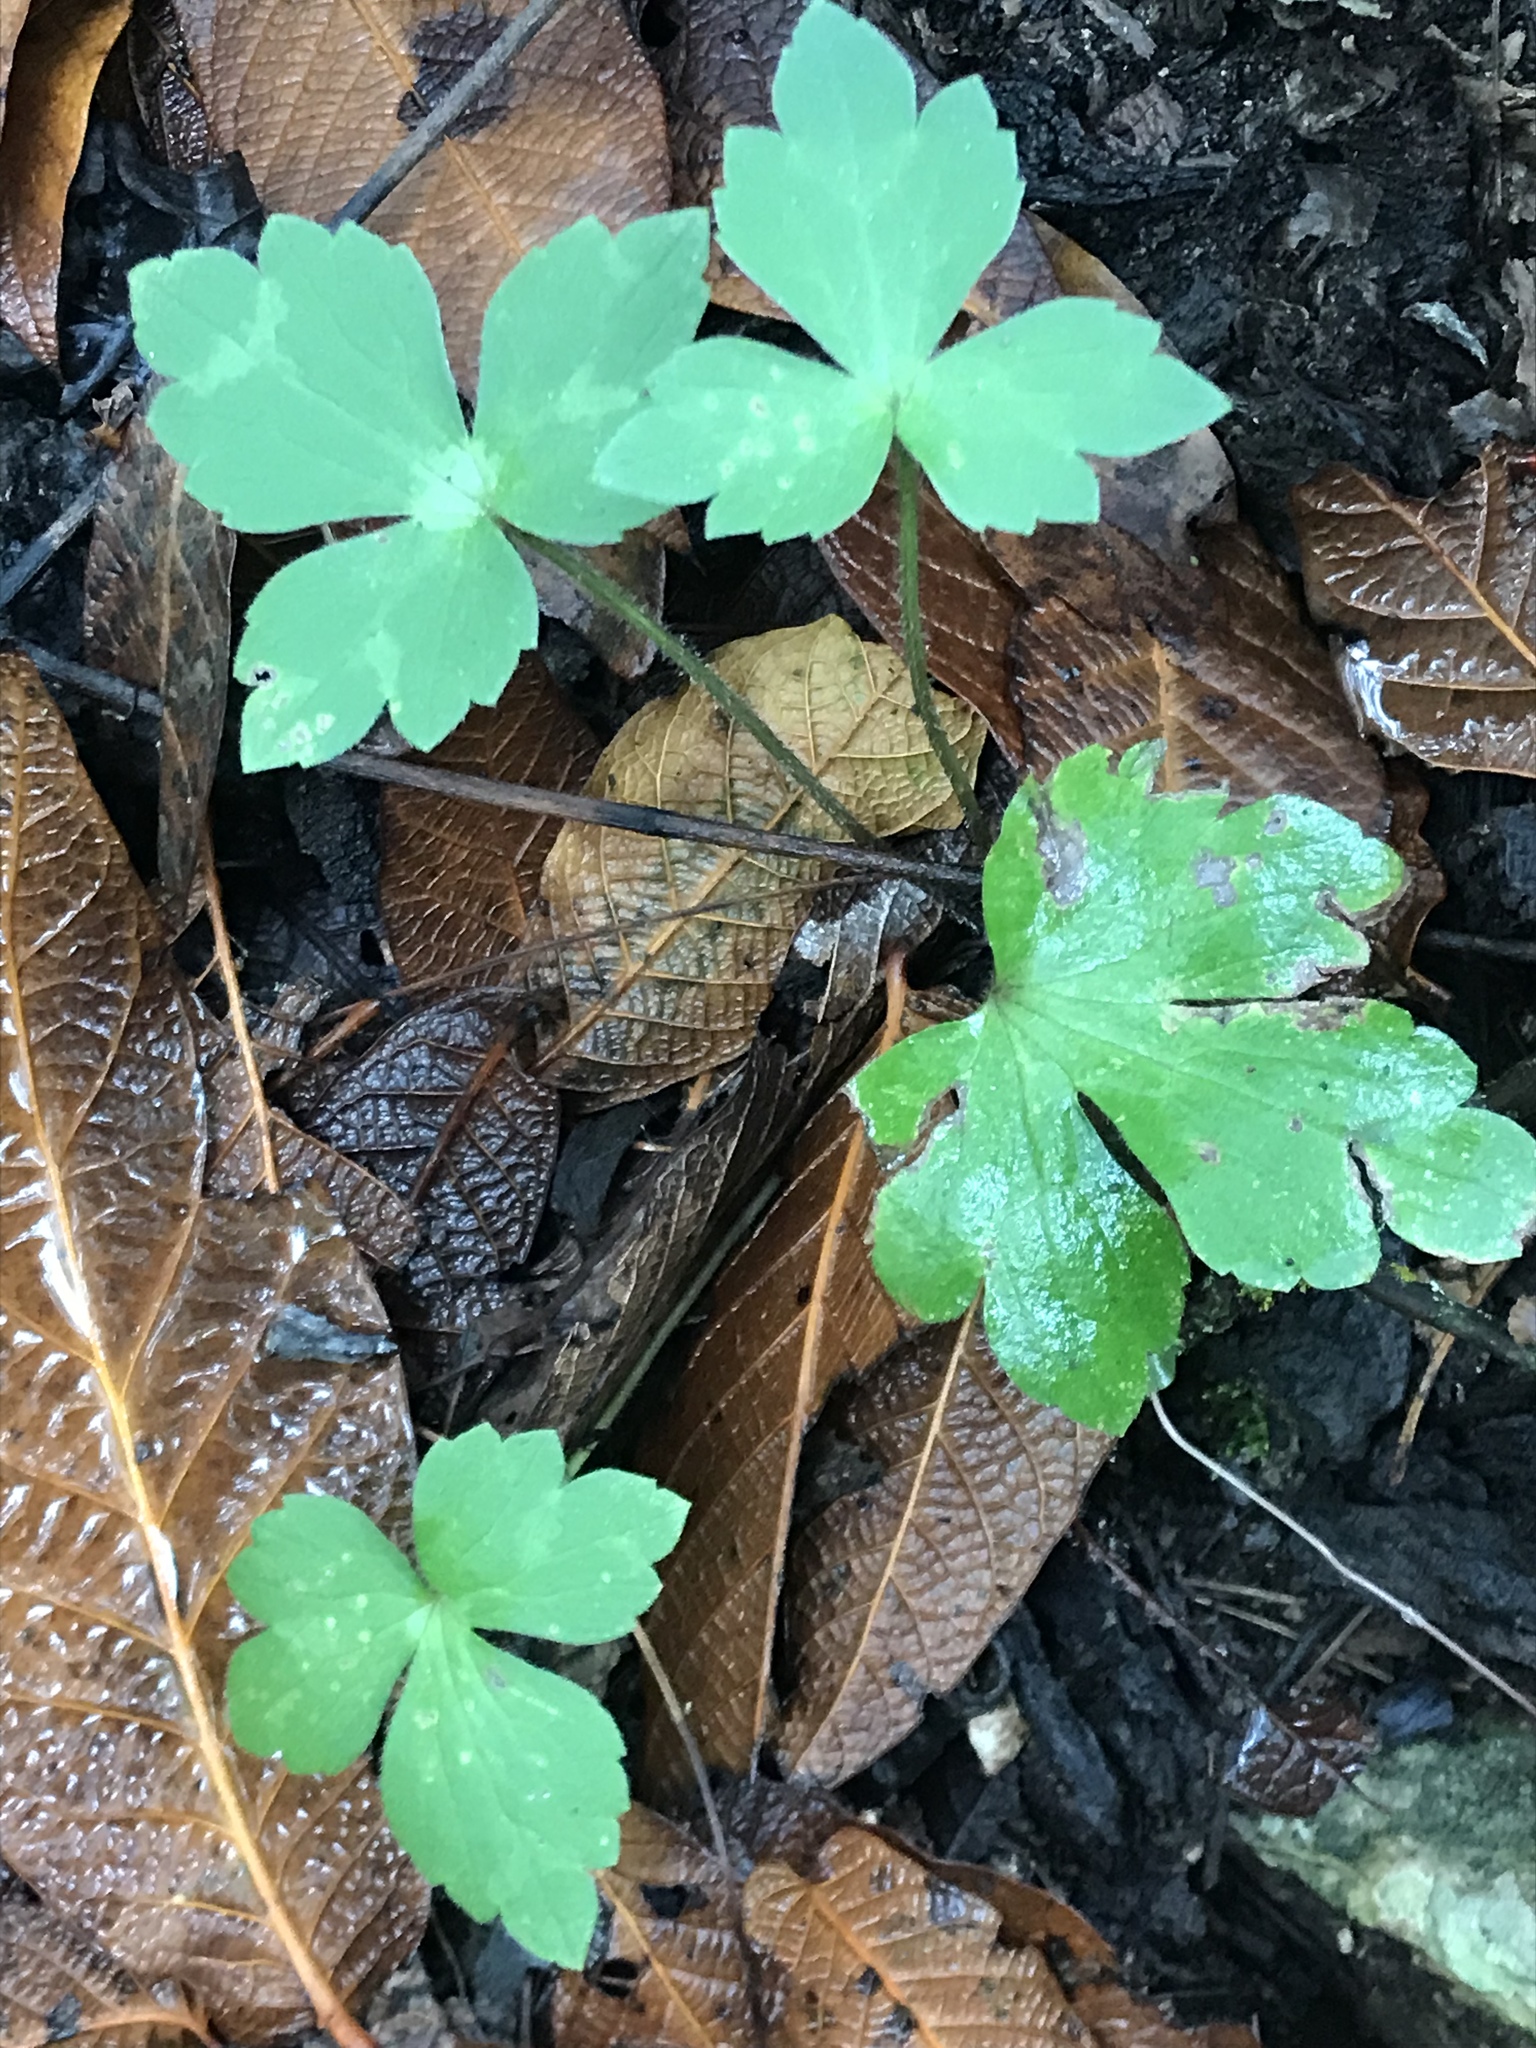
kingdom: Plantae
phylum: Tracheophyta
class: Magnoliopsida
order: Ranunculales
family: Ranunculaceae
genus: Ranunculus
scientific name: Ranunculus sierrae-orientalis
